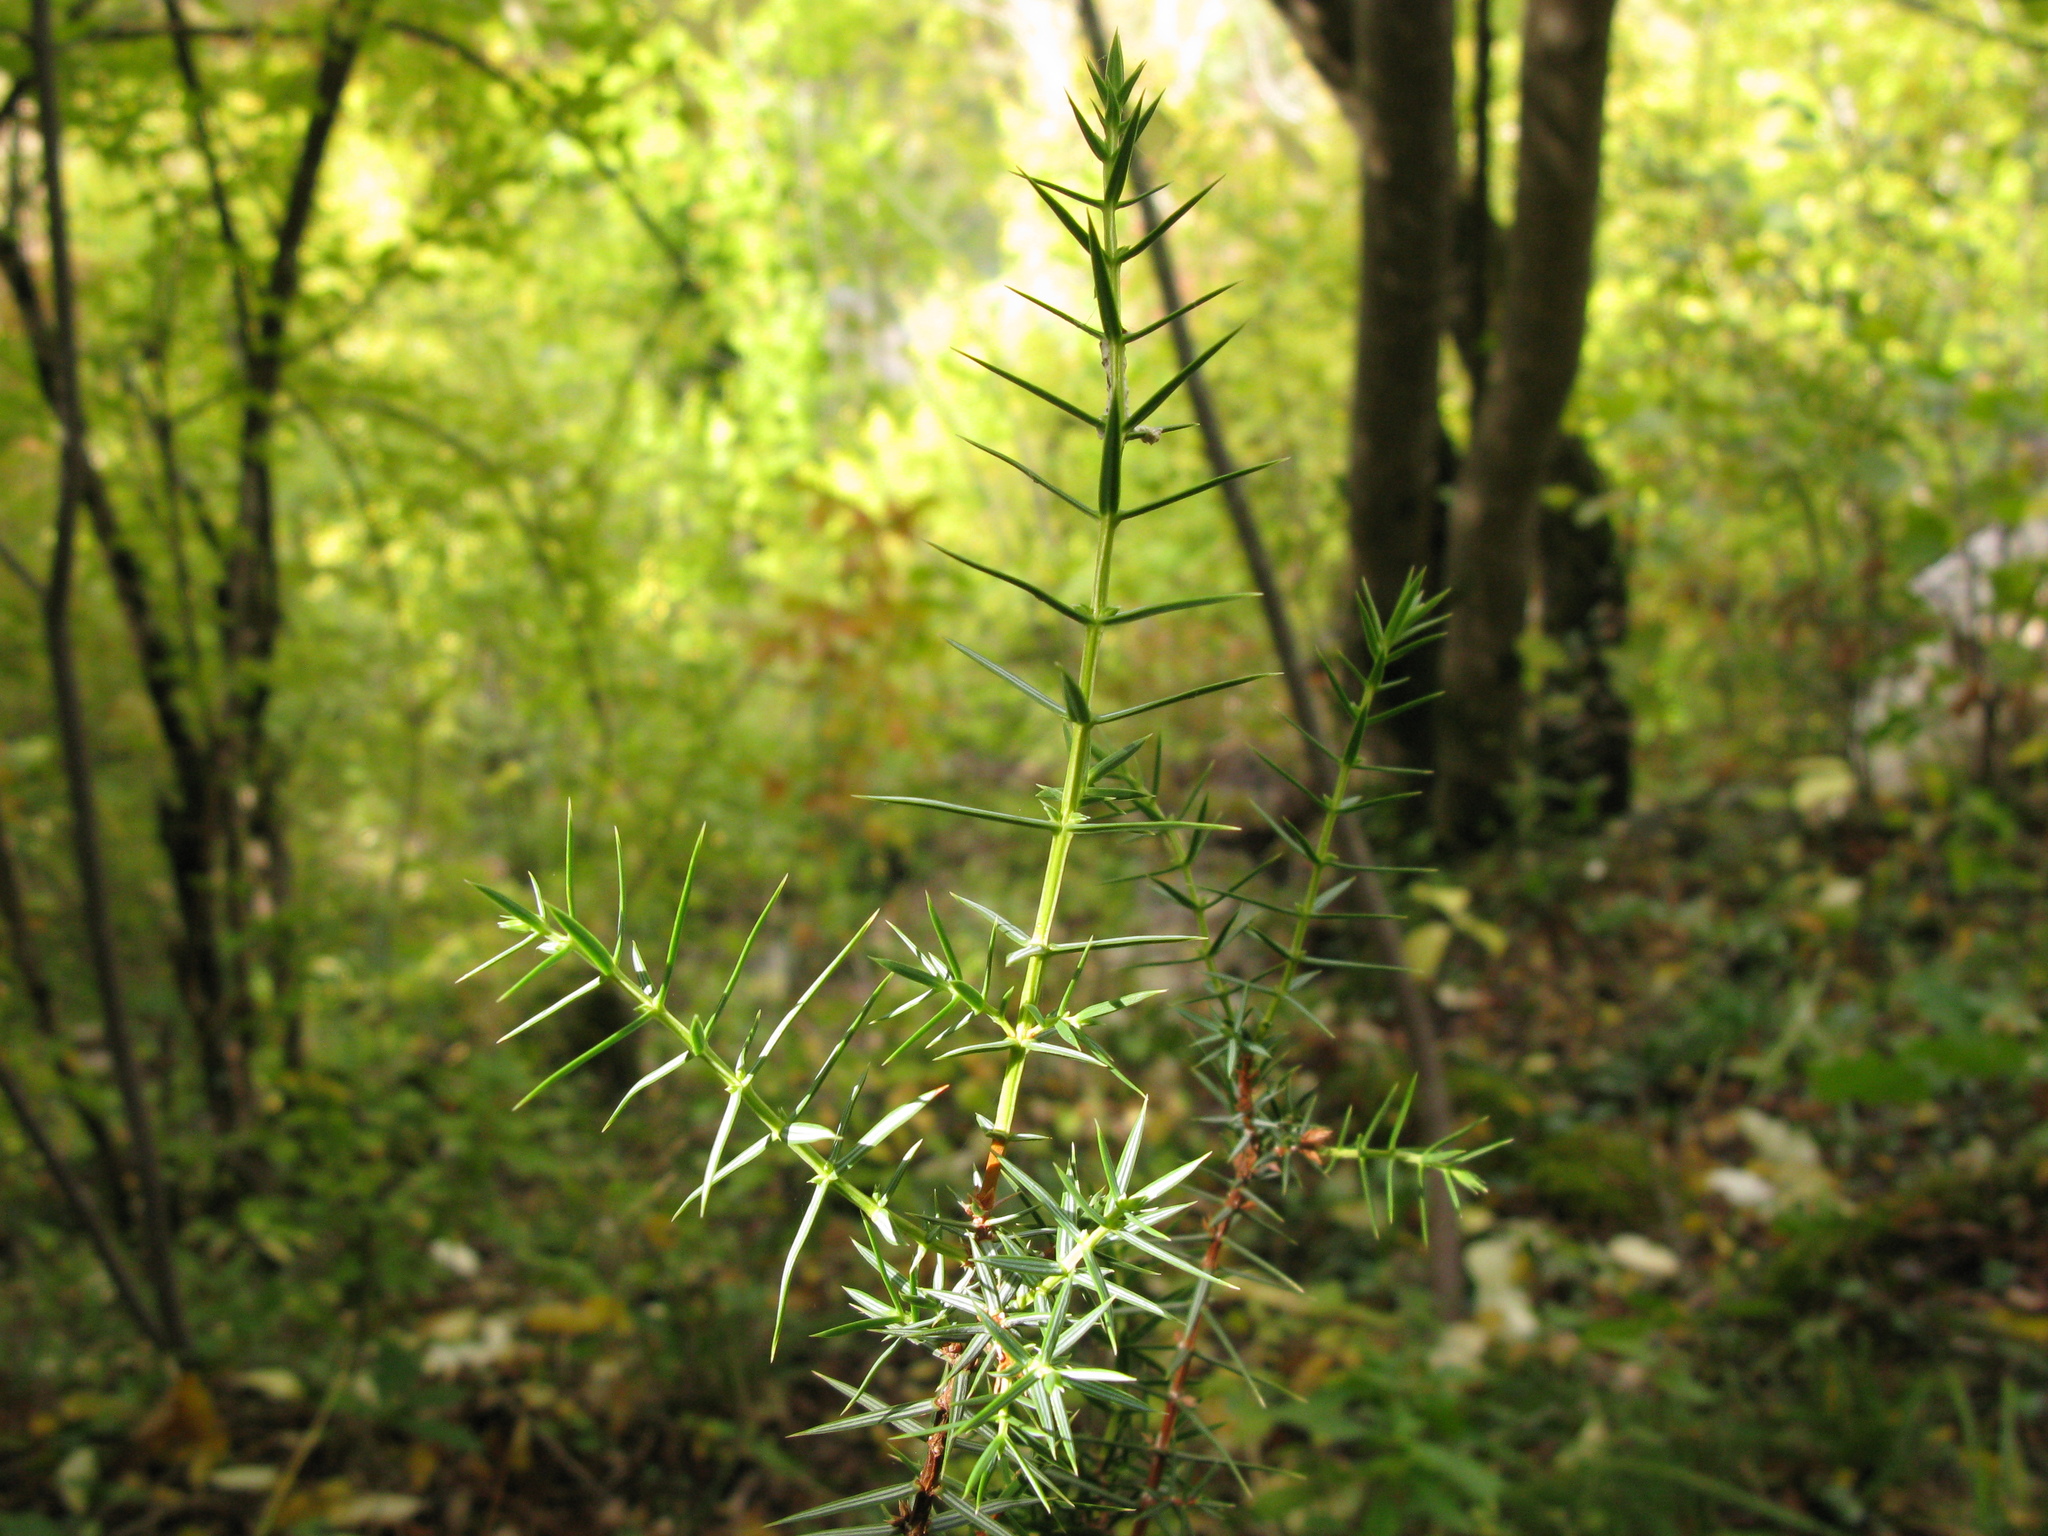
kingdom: Plantae
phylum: Tracheophyta
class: Pinopsida
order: Pinales
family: Cupressaceae
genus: Juniperus
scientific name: Juniperus oxycedrus
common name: Prickly juniper
